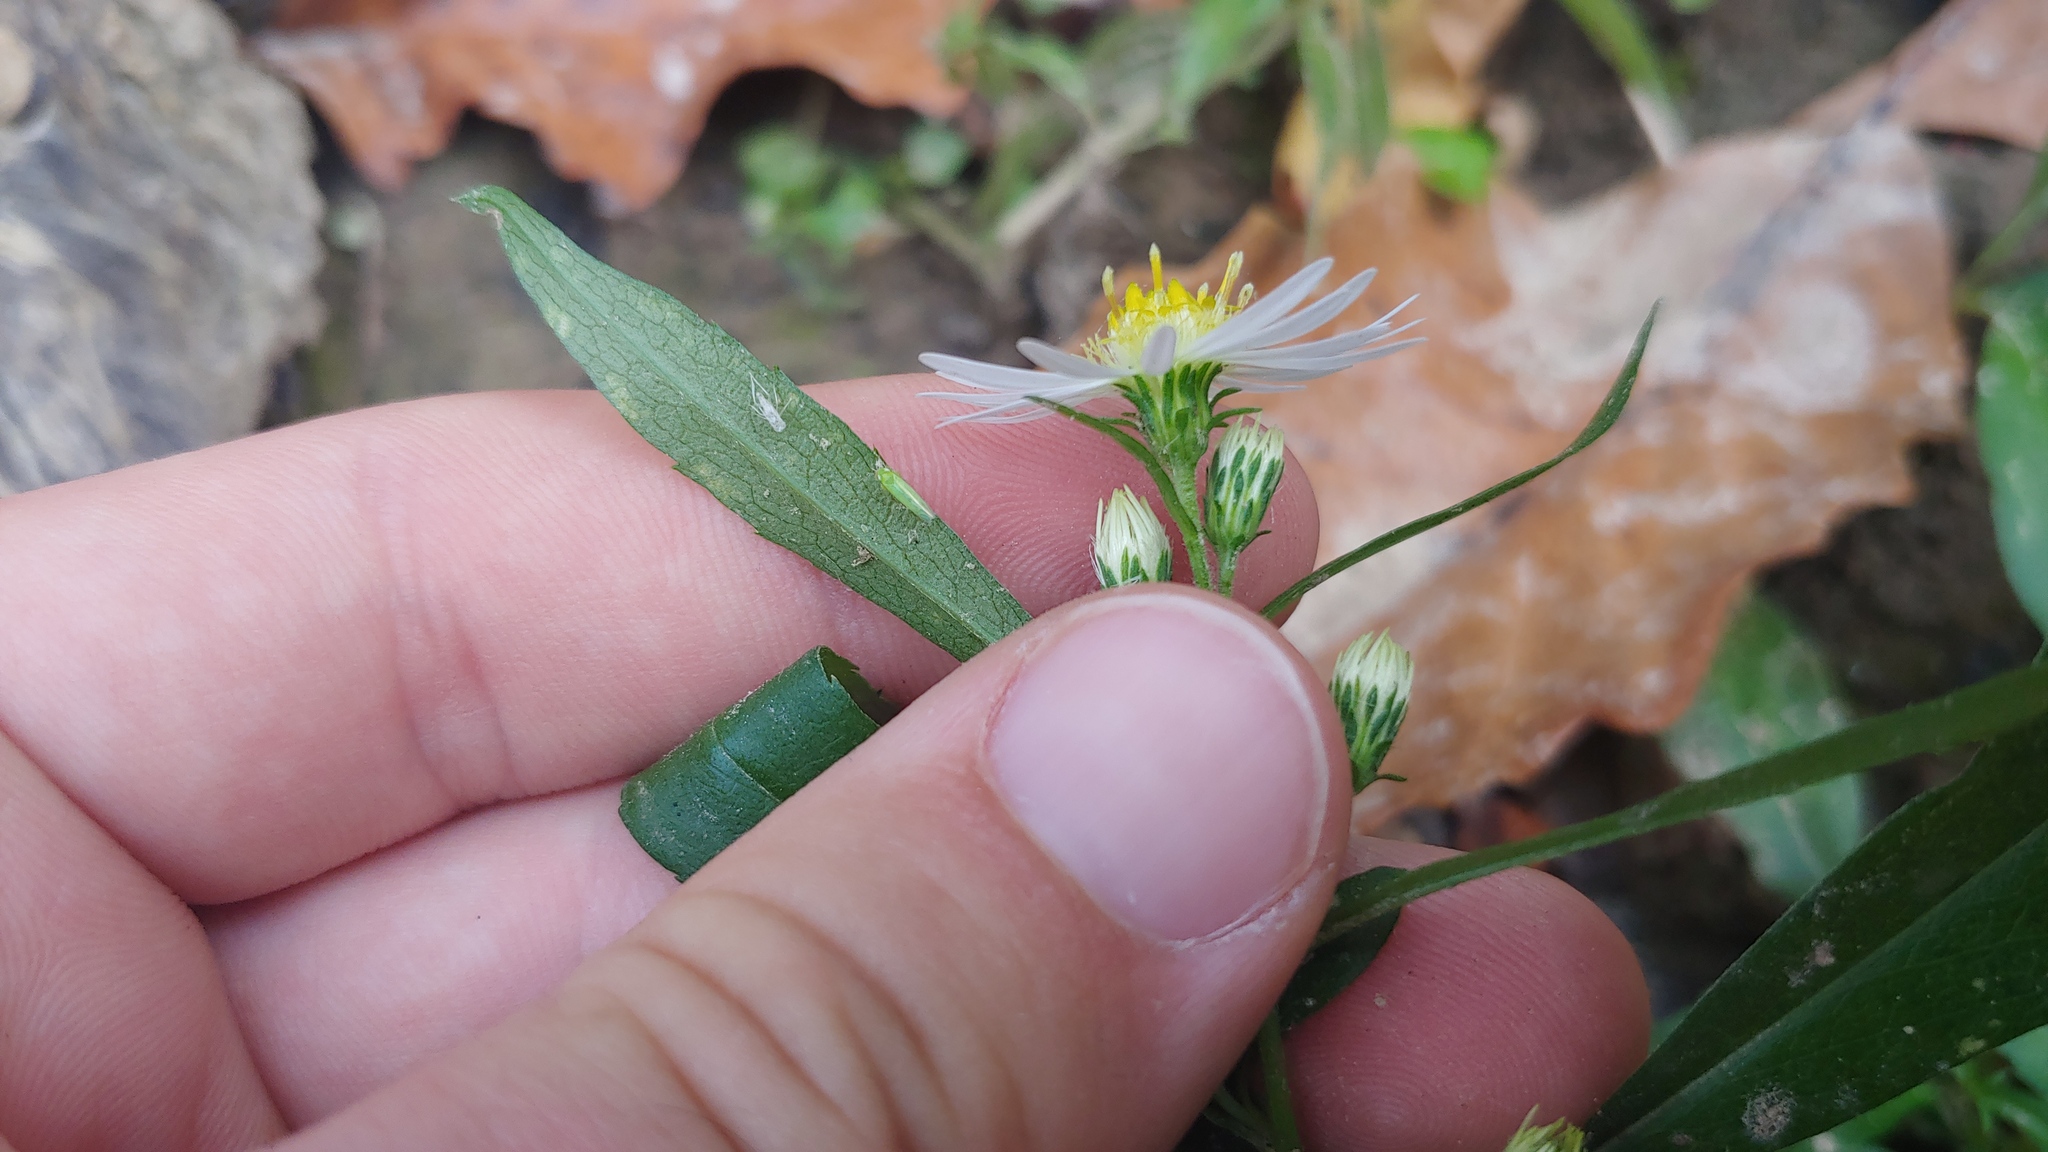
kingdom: Plantae
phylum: Tracheophyta
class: Magnoliopsida
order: Asterales
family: Asteraceae
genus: Symphyotrichum
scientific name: Symphyotrichum lanceolatum
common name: Panicled aster
